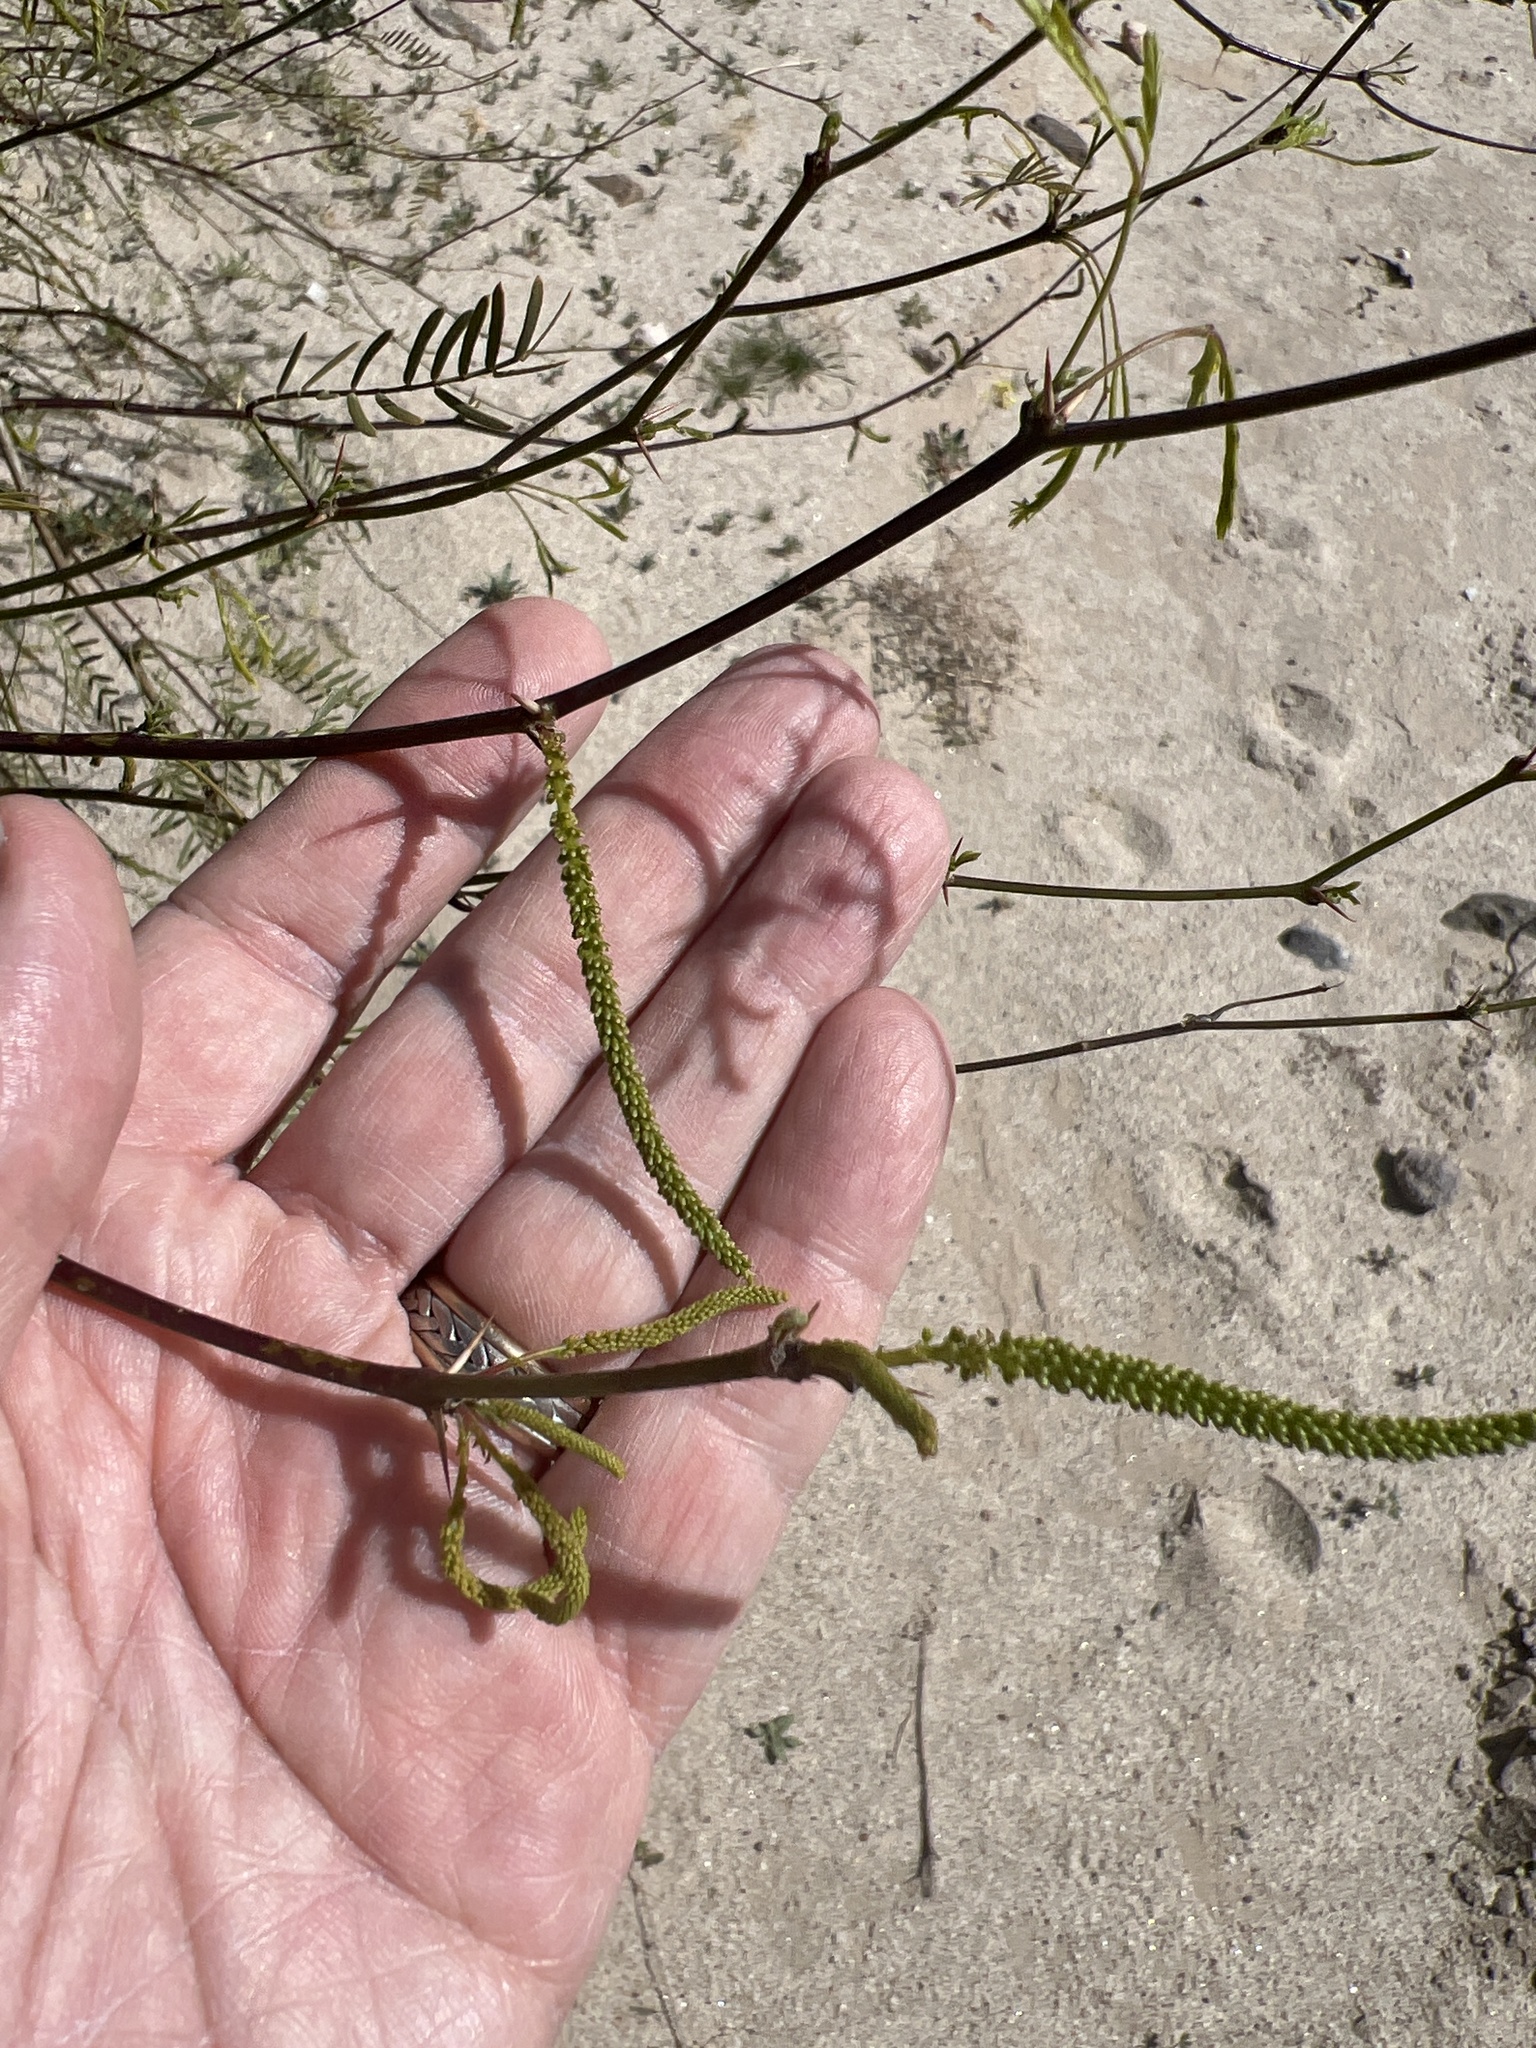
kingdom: Plantae
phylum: Tracheophyta
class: Magnoliopsida
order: Fabales
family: Fabaceae
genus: Prosopis
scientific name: Prosopis pubescens
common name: Screw-bean
